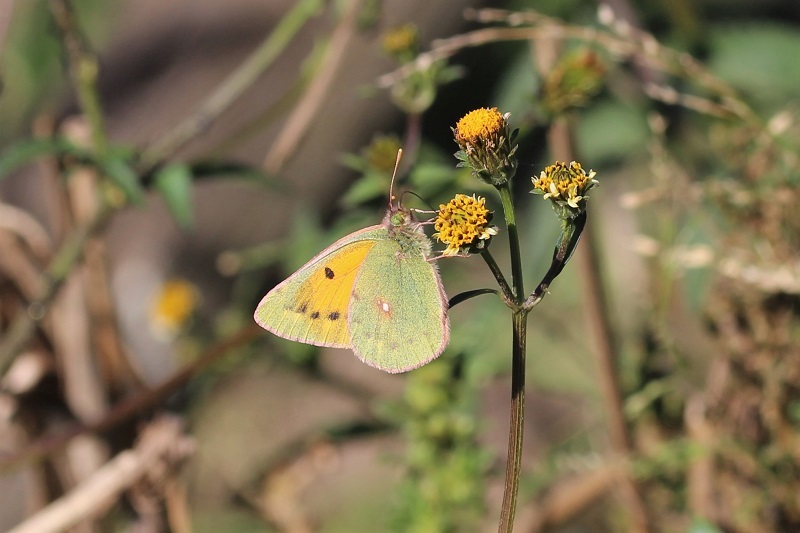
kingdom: Animalia
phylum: Arthropoda
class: Insecta
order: Lepidoptera
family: Pieridae
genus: Colias
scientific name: Colias electo
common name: African clouded yellow
